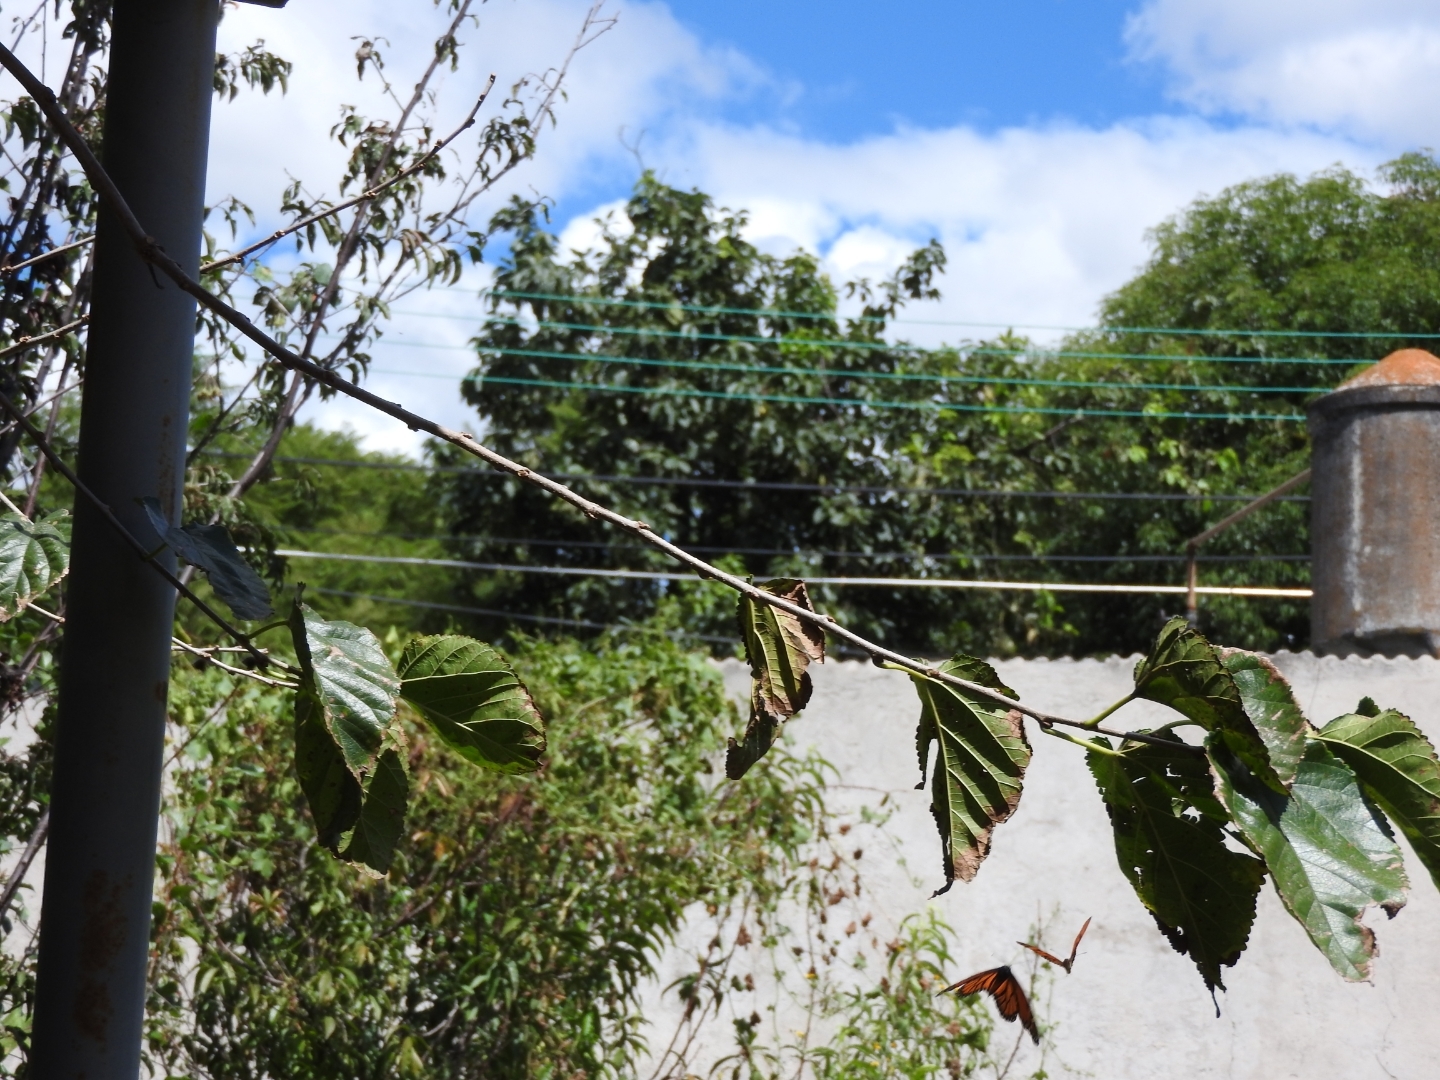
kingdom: Animalia
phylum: Arthropoda
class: Insecta
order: Lepidoptera
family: Nymphalidae
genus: Danaus
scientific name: Danaus plexippus
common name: Monarch
